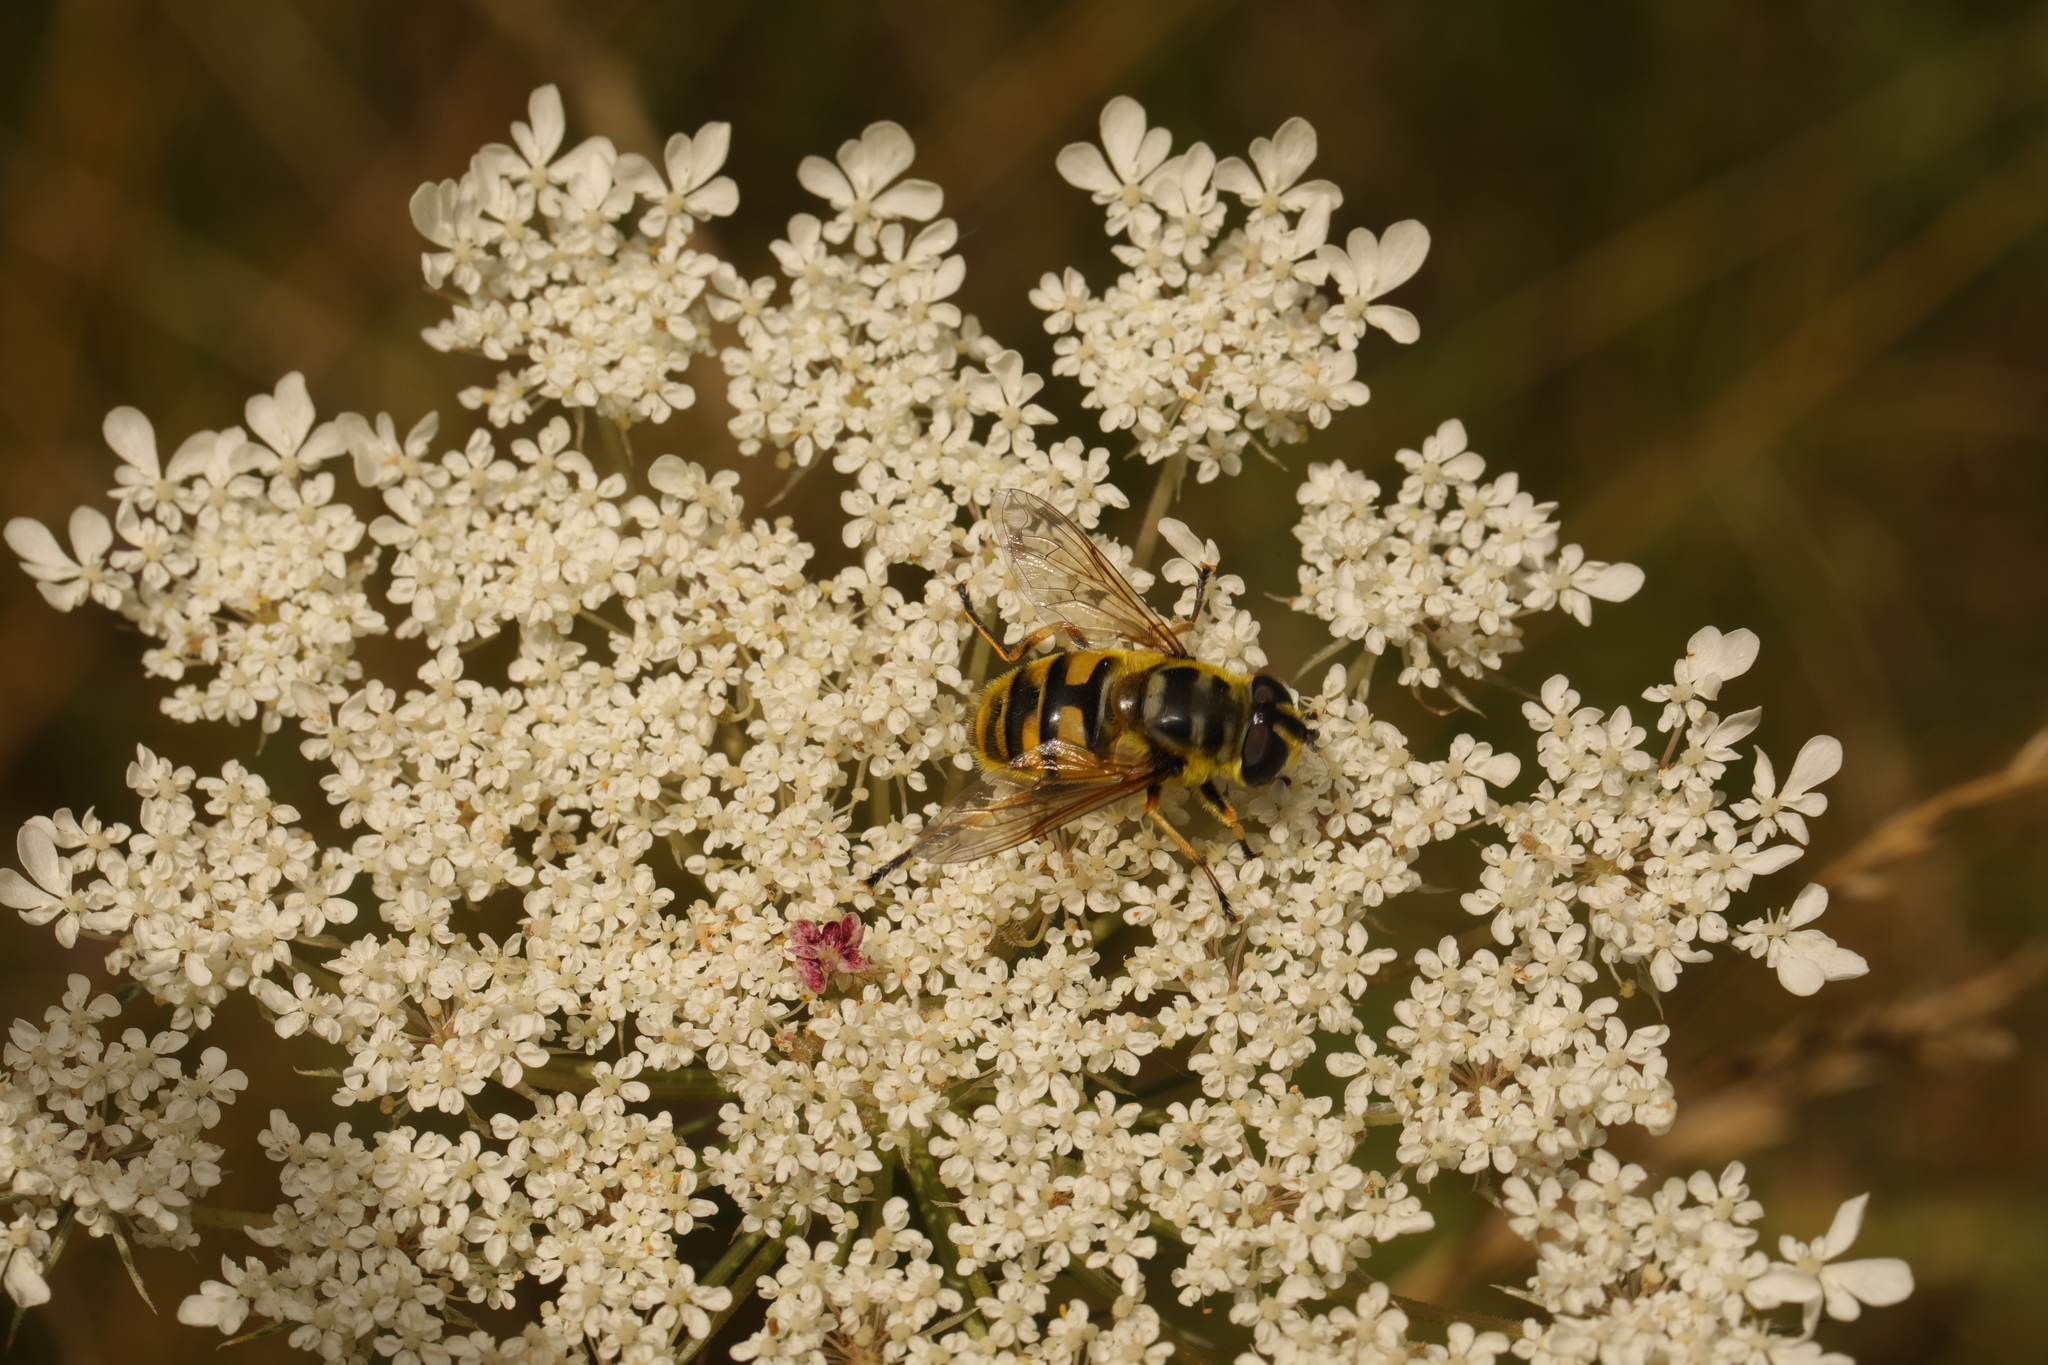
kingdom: Animalia
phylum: Arthropoda
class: Insecta
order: Diptera
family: Syrphidae
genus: Myathropa
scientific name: Myathropa florea
